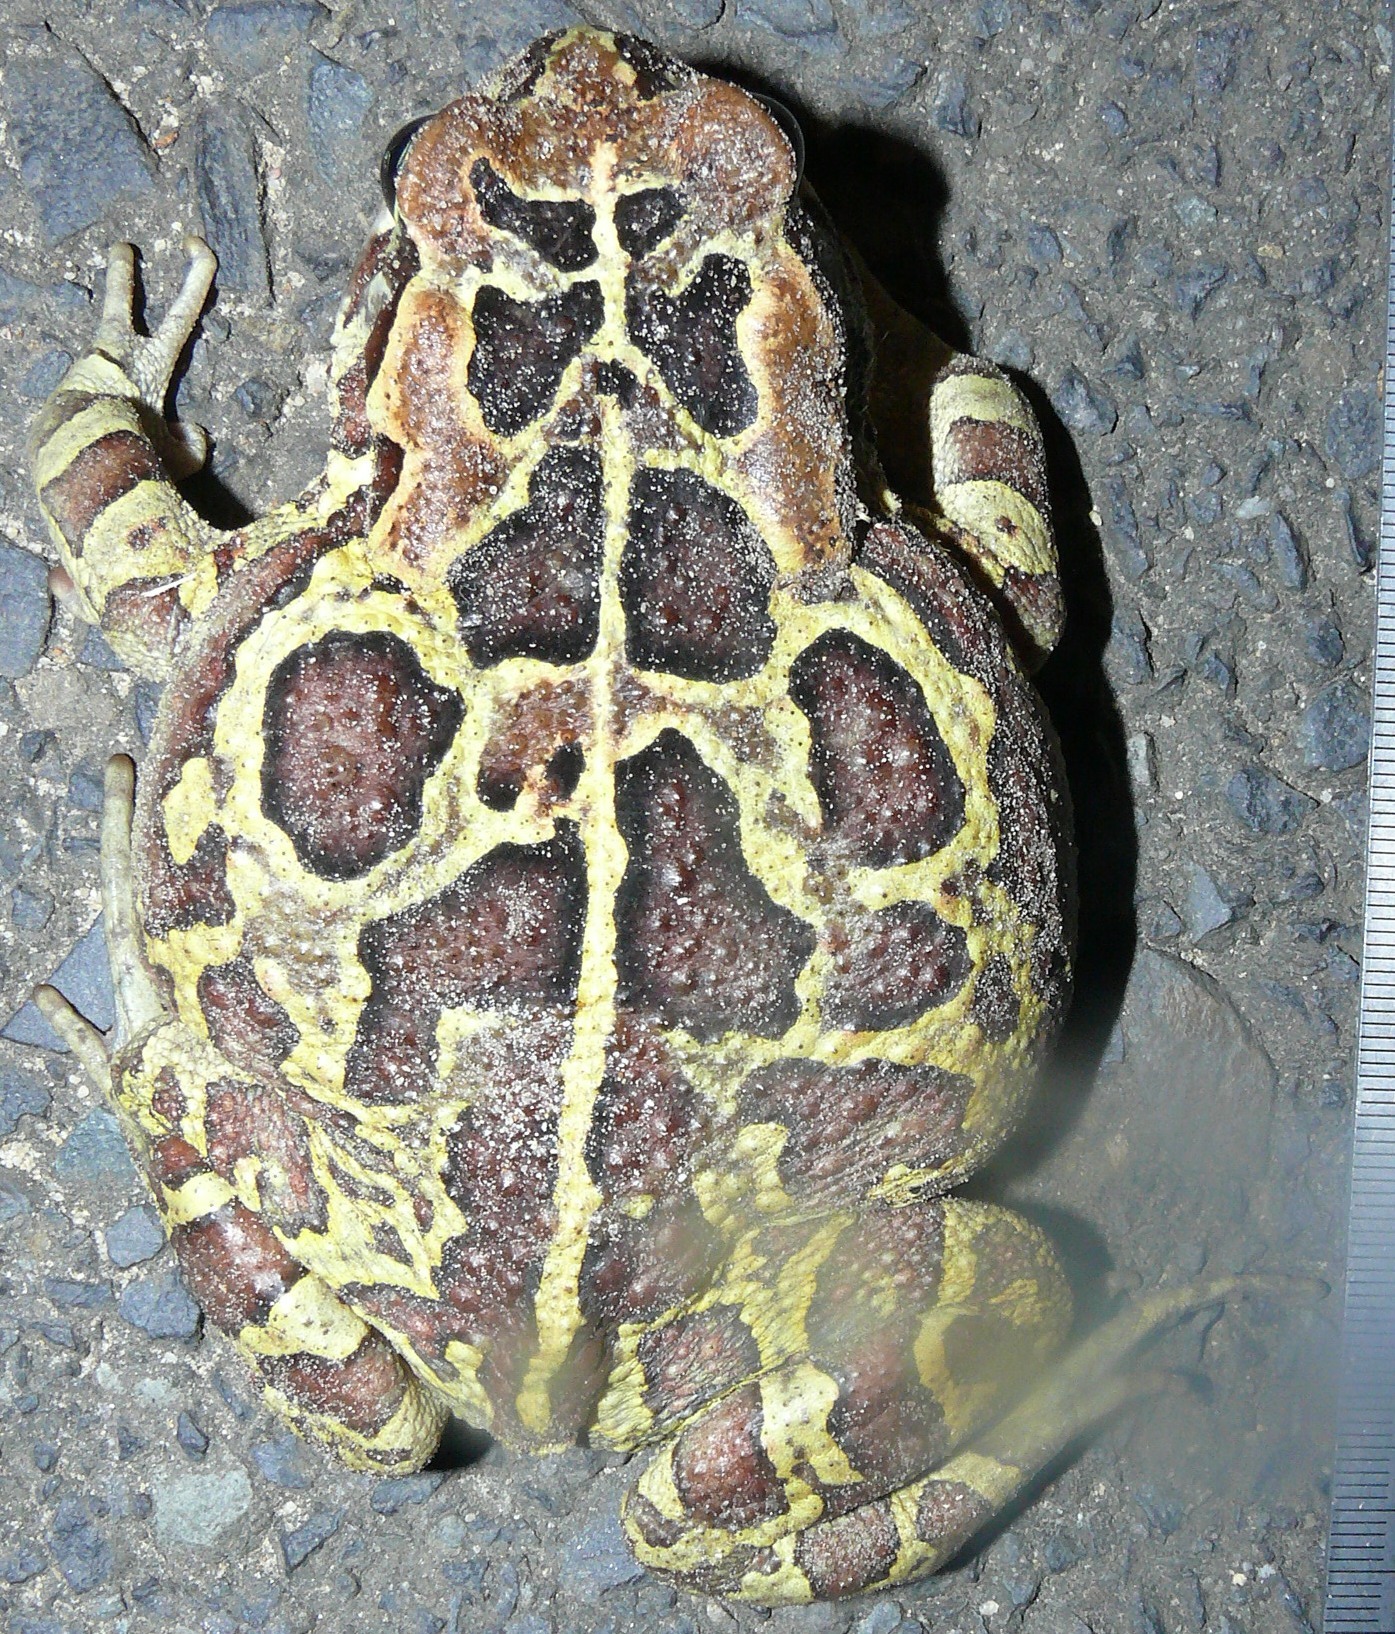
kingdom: Animalia
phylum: Chordata
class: Amphibia
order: Anura
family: Bufonidae
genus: Sclerophrys
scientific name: Sclerophrys pantherina
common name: Panther toad
